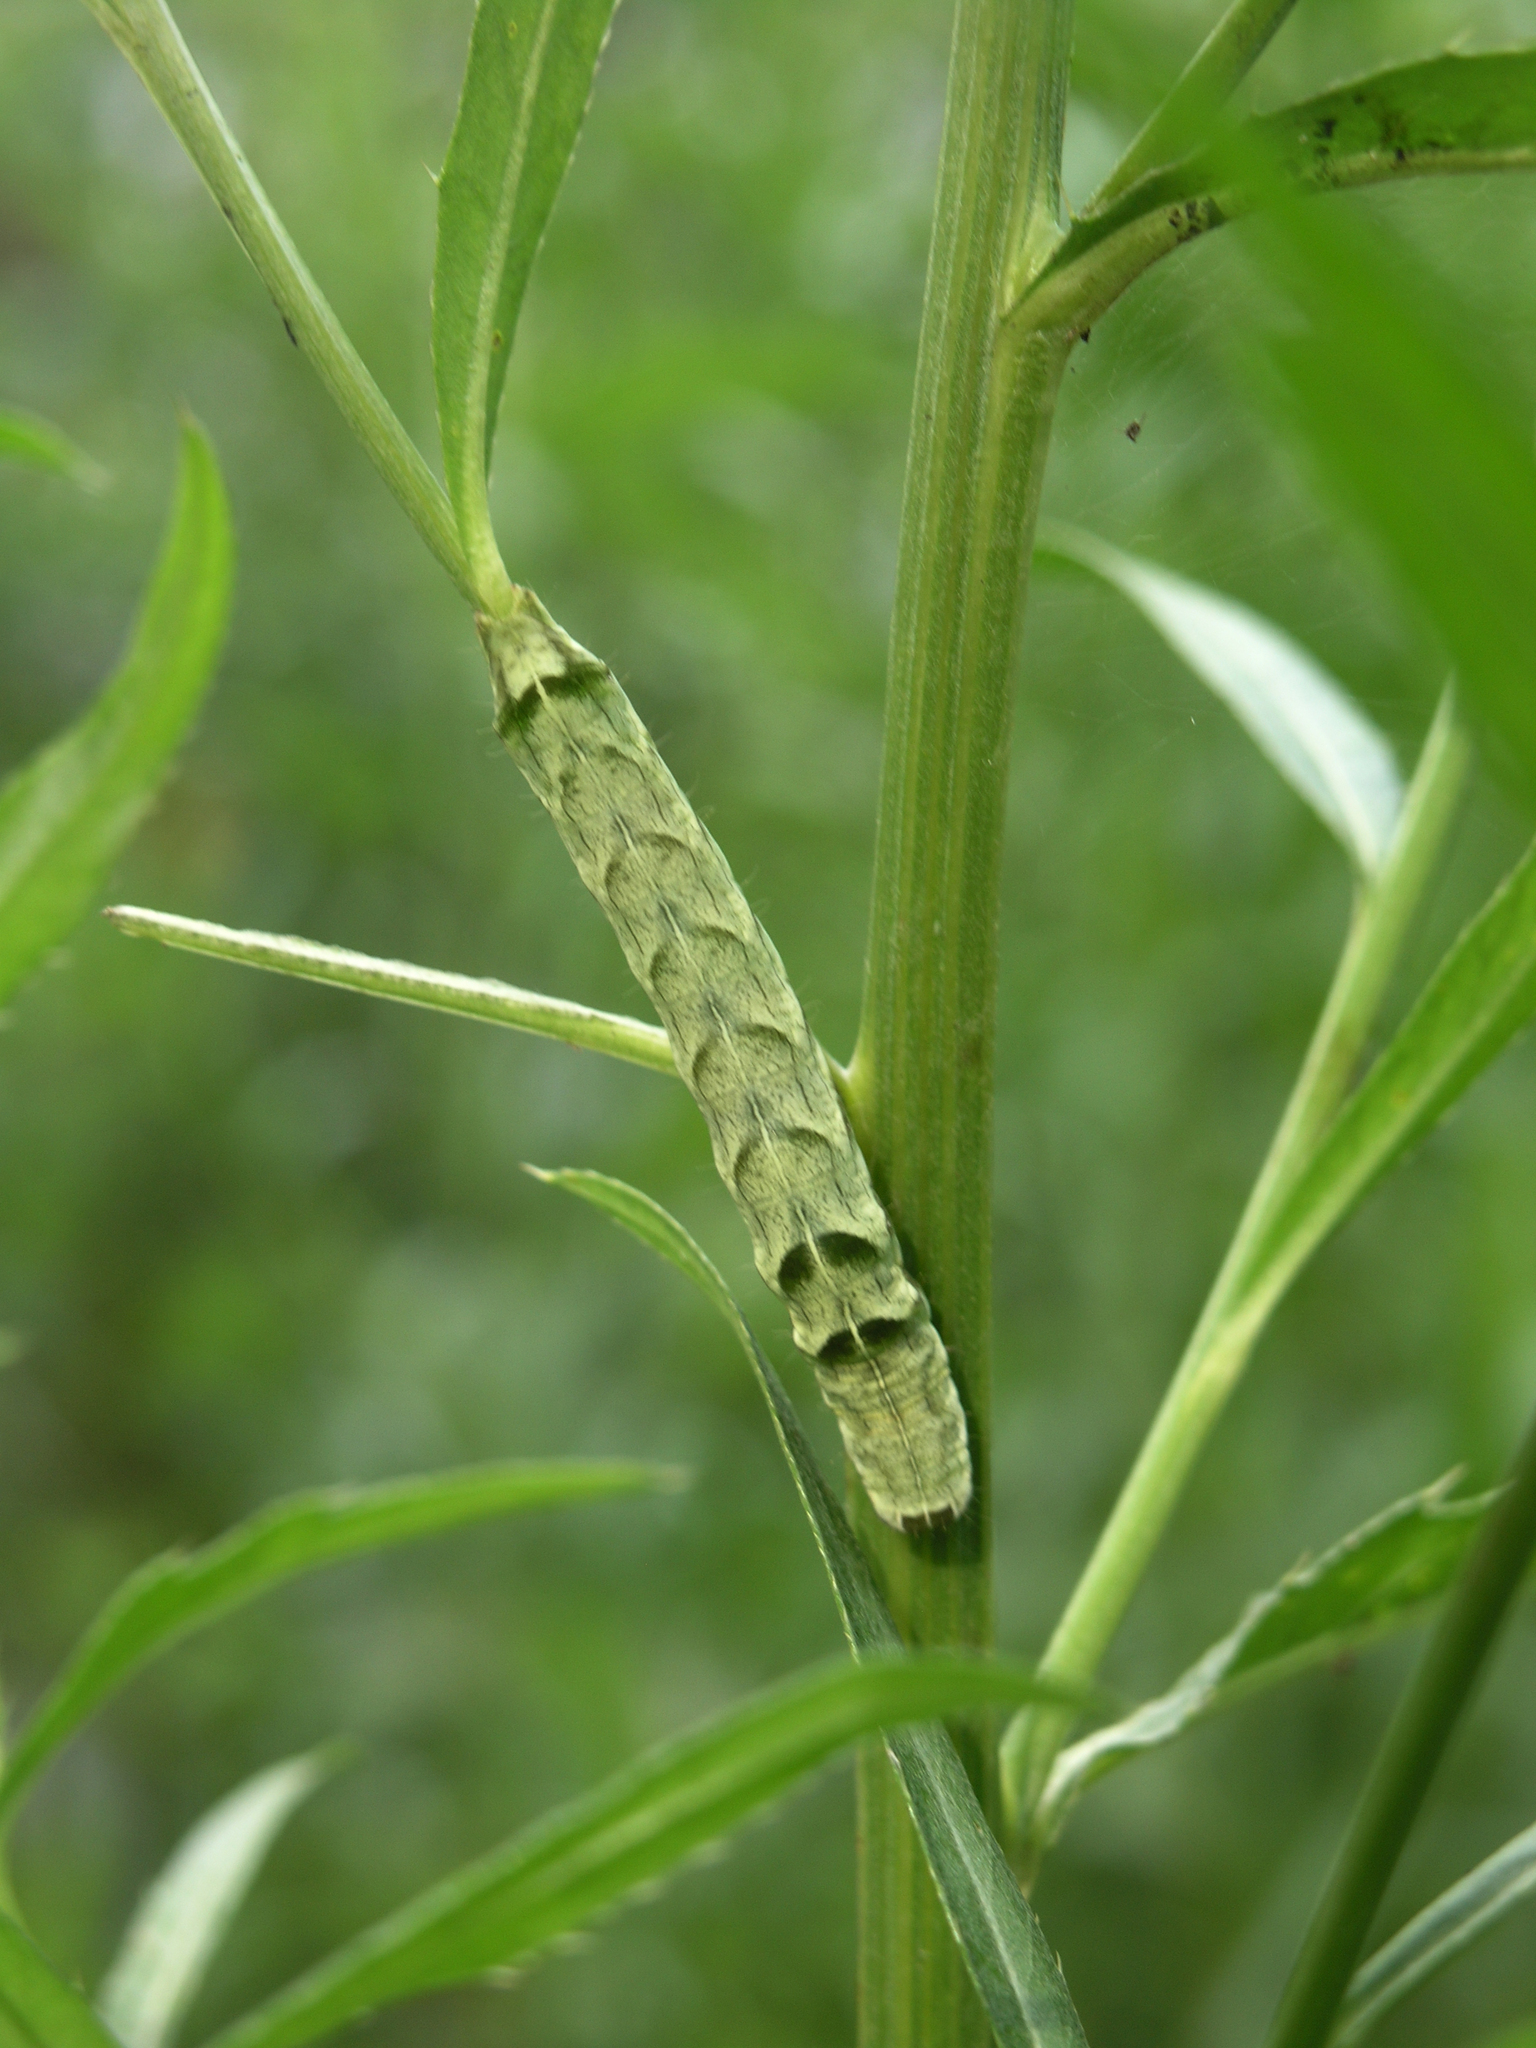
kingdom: Animalia
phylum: Arthropoda
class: Insecta
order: Lepidoptera
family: Noctuidae
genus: Melanchra
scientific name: Melanchra persicariae
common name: Dot moth
